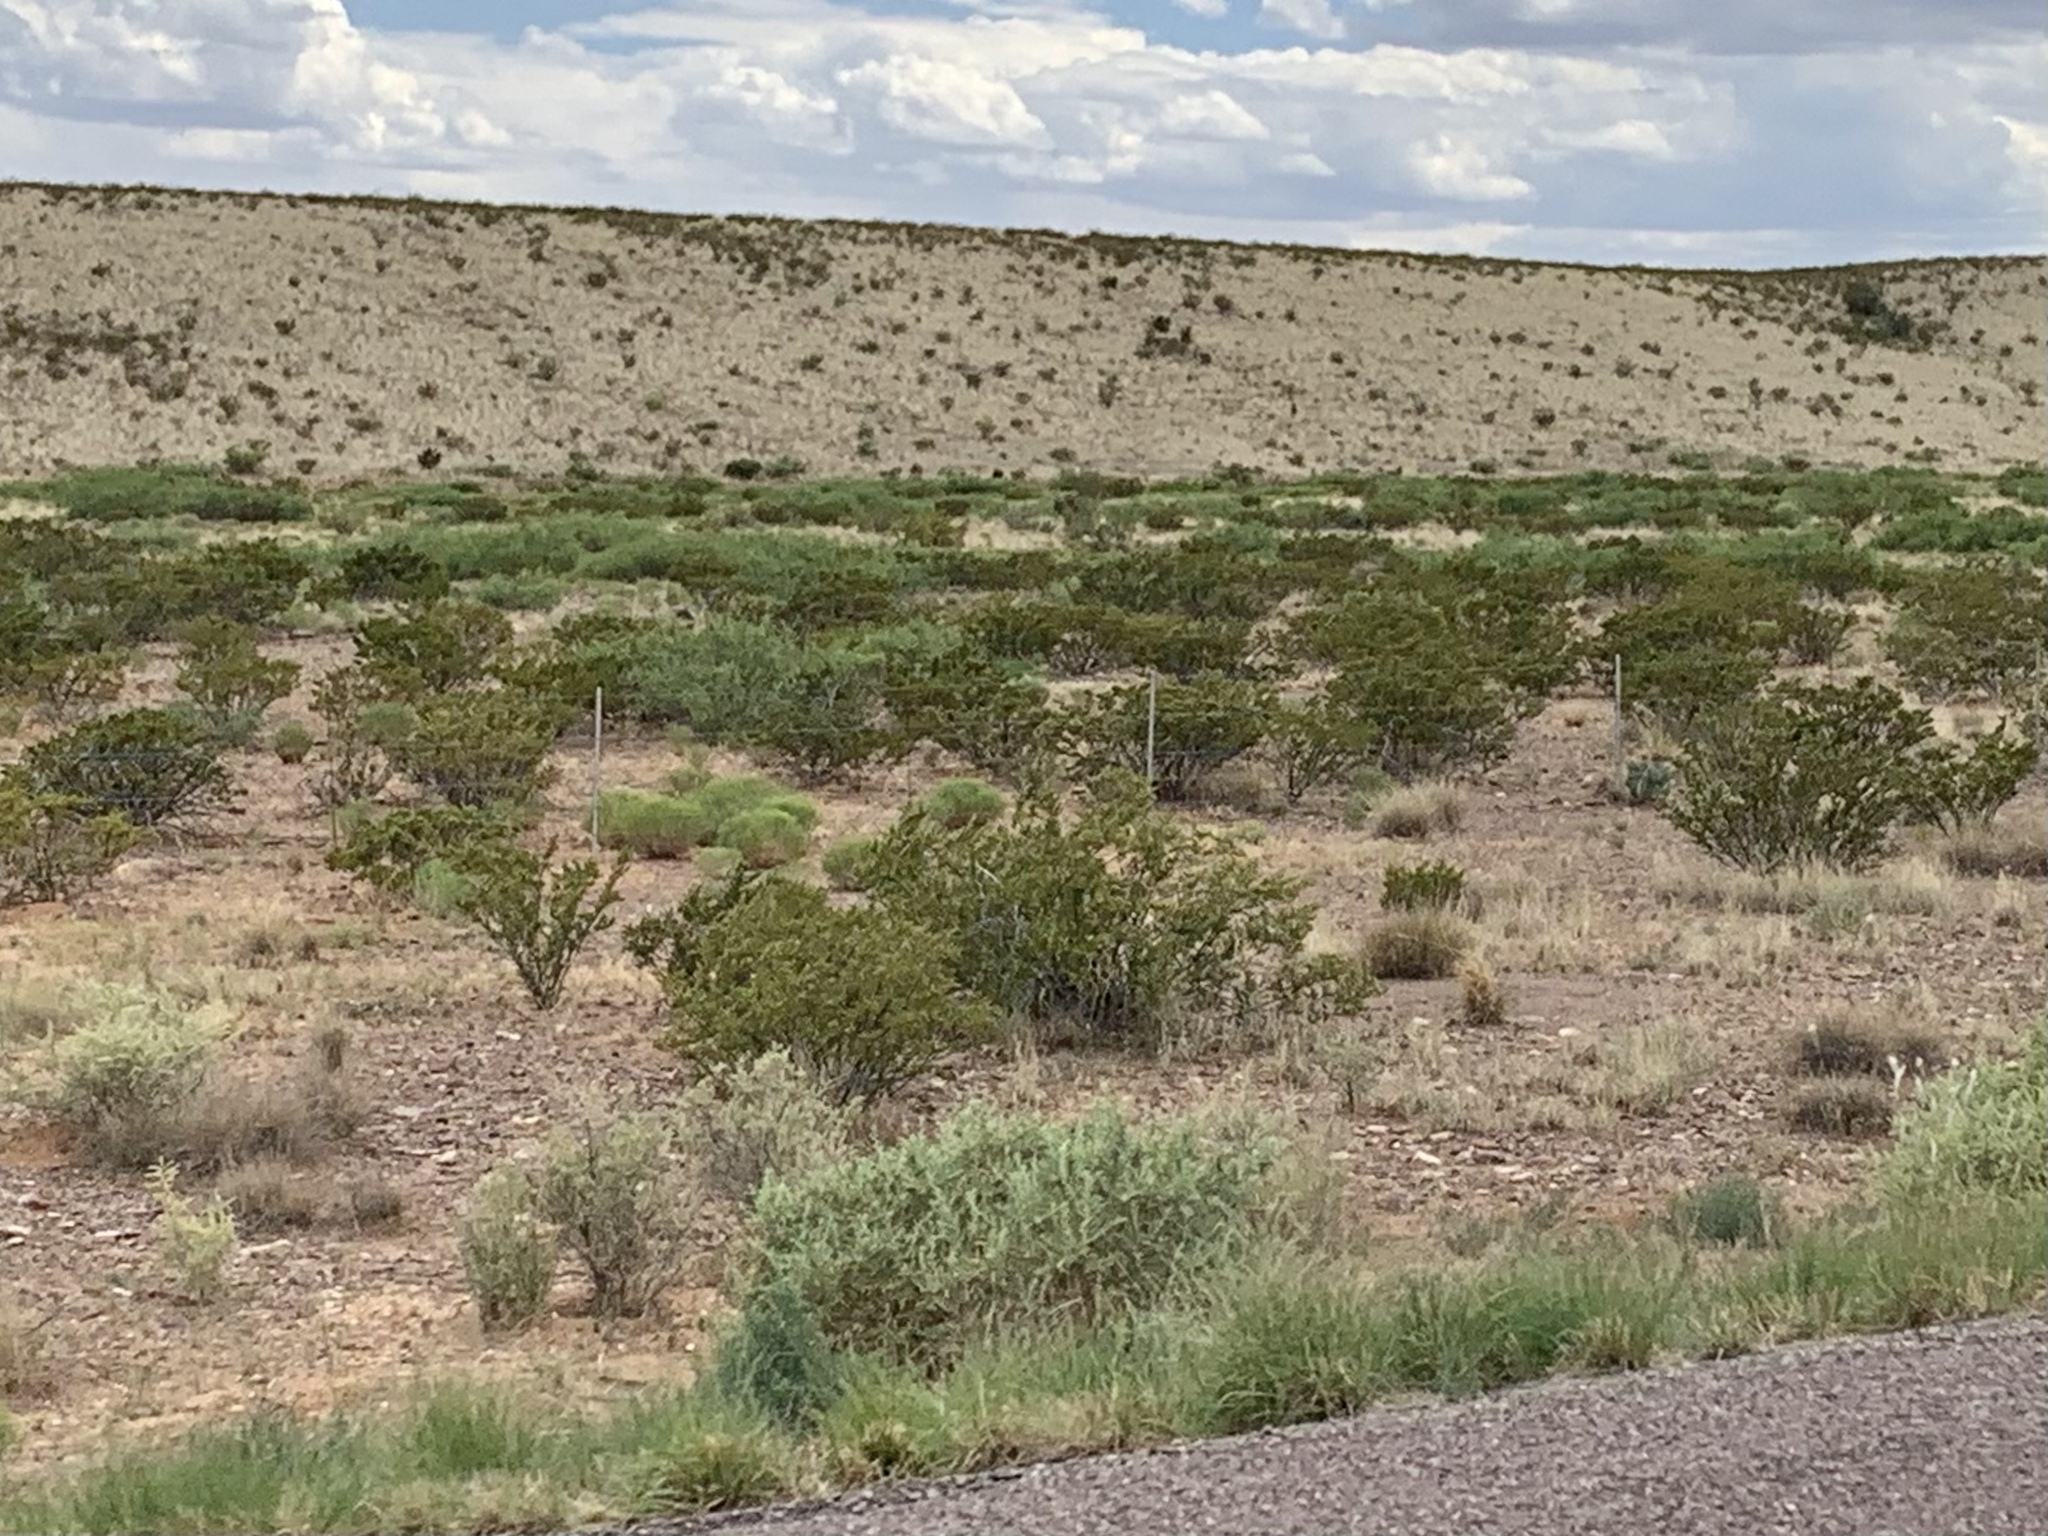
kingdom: Plantae
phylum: Tracheophyta
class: Magnoliopsida
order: Zygophyllales
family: Zygophyllaceae
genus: Larrea
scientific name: Larrea tridentata
